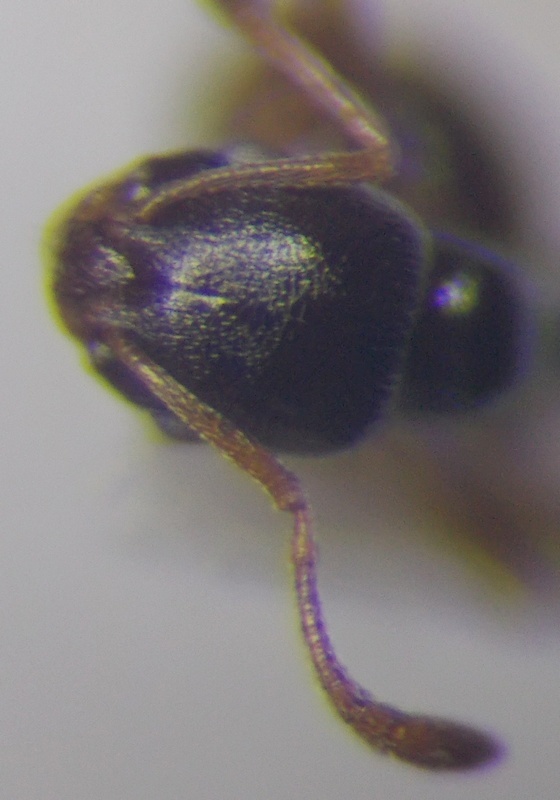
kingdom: Animalia
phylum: Arthropoda
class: Insecta
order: Hymenoptera
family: Formicidae
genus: Cardiocondyla
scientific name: Cardiocondyla stambuloffii
